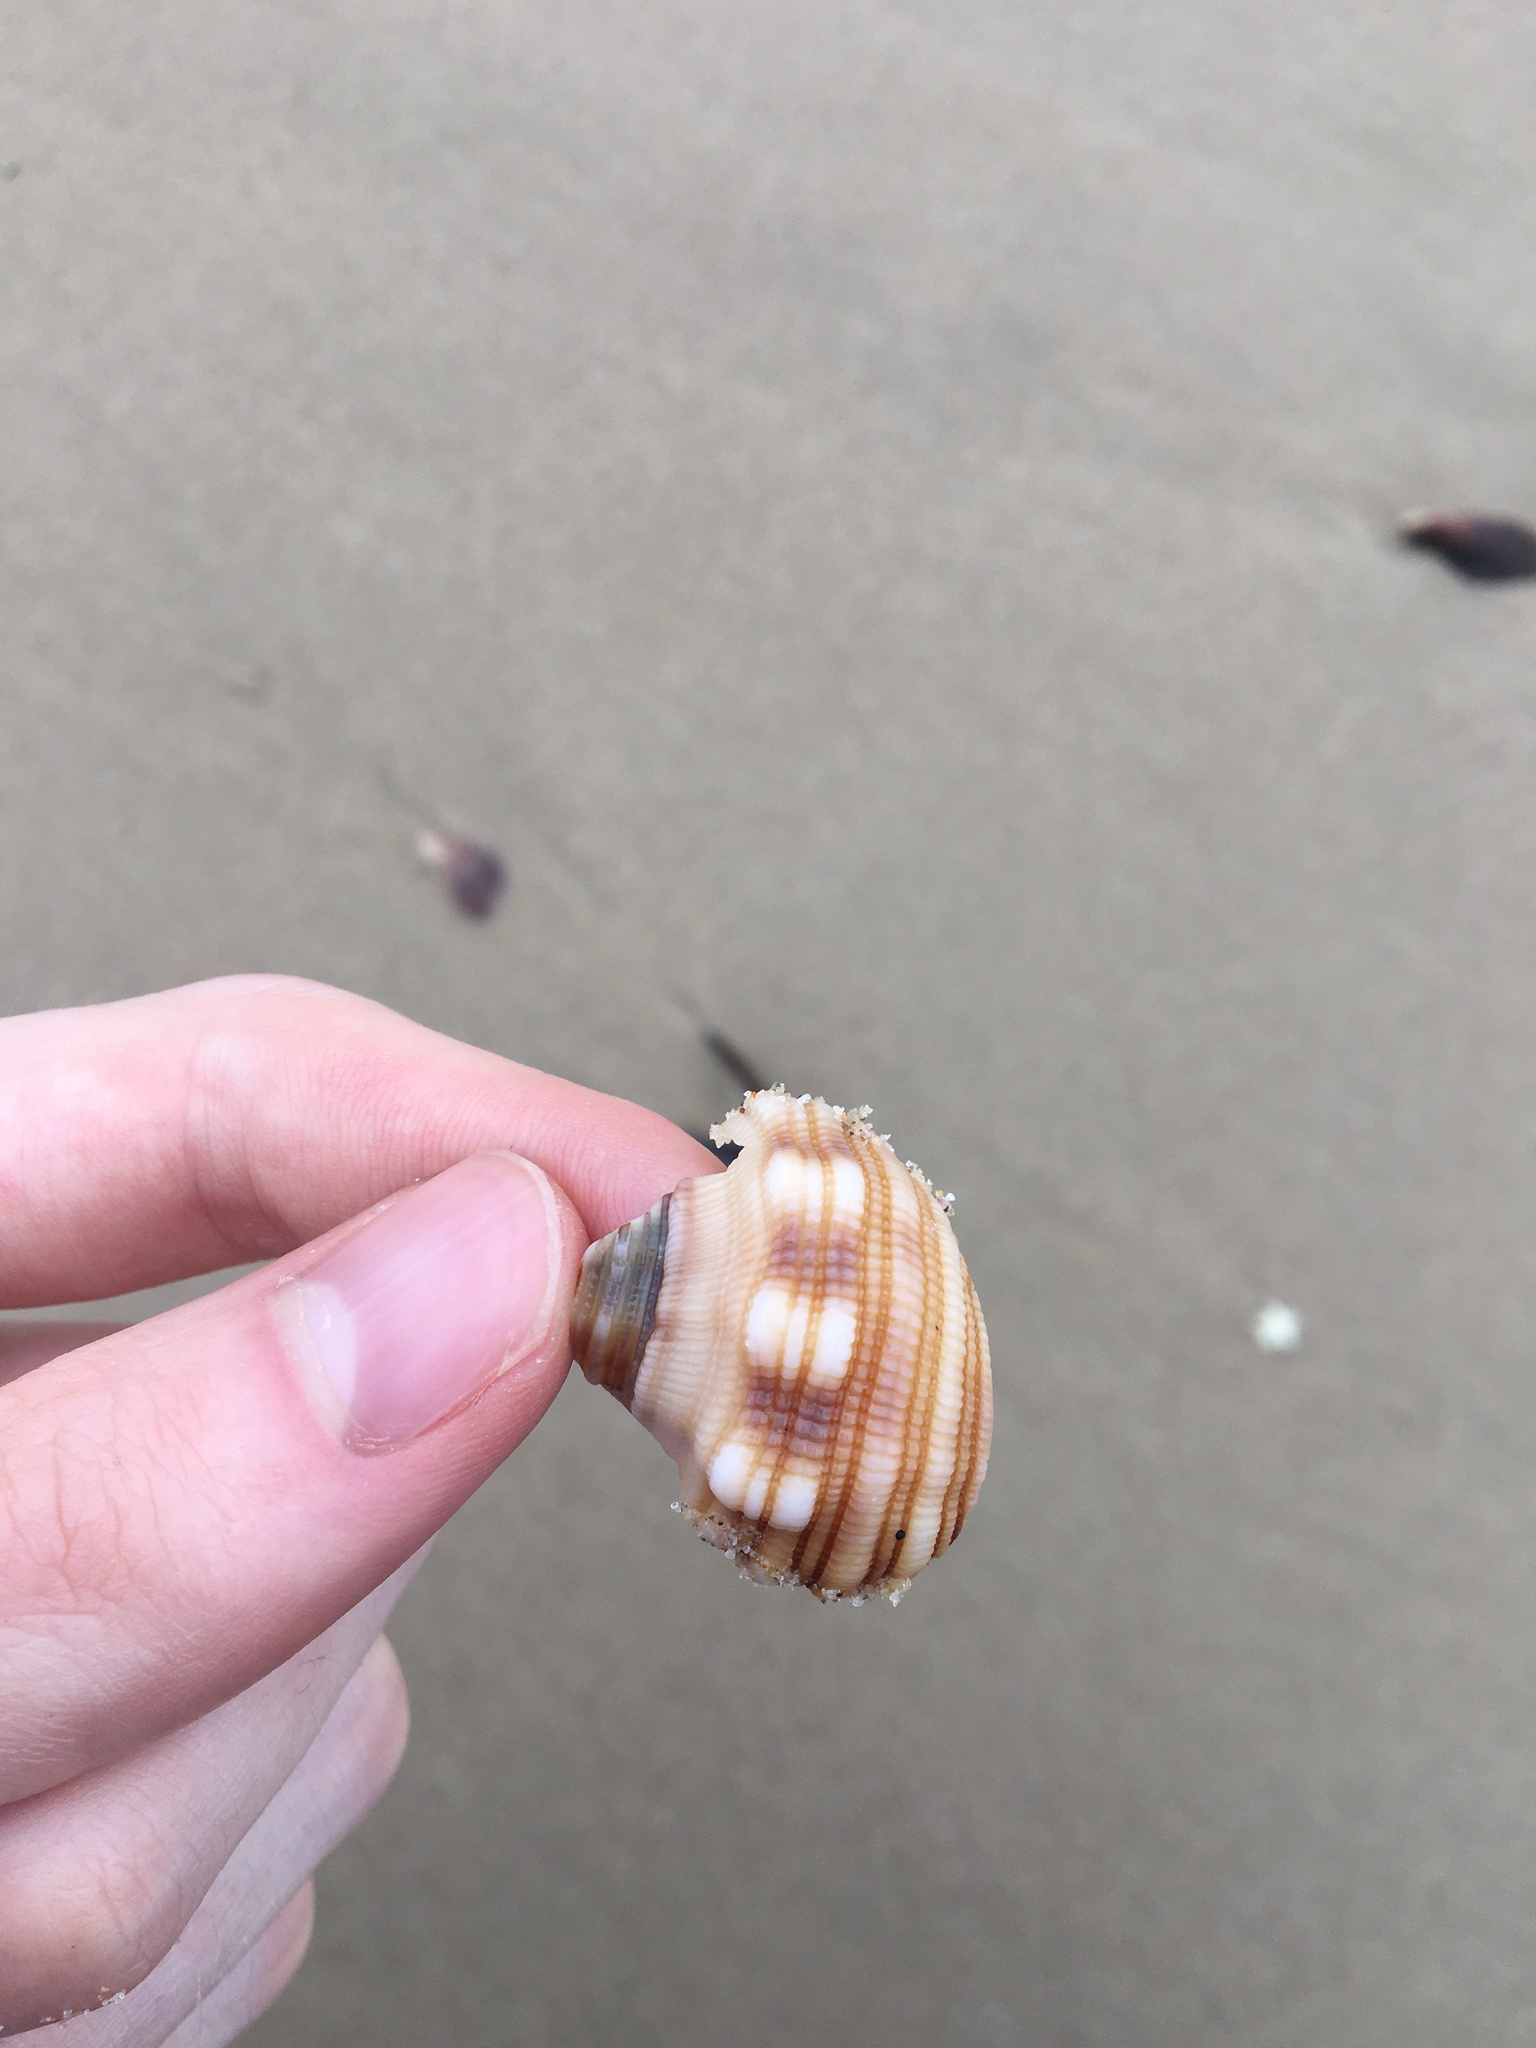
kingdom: Animalia
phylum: Mollusca
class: Gastropoda
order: Littorinimorpha
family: Cymatiidae
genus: Cabestana
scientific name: Cabestana spengleri
